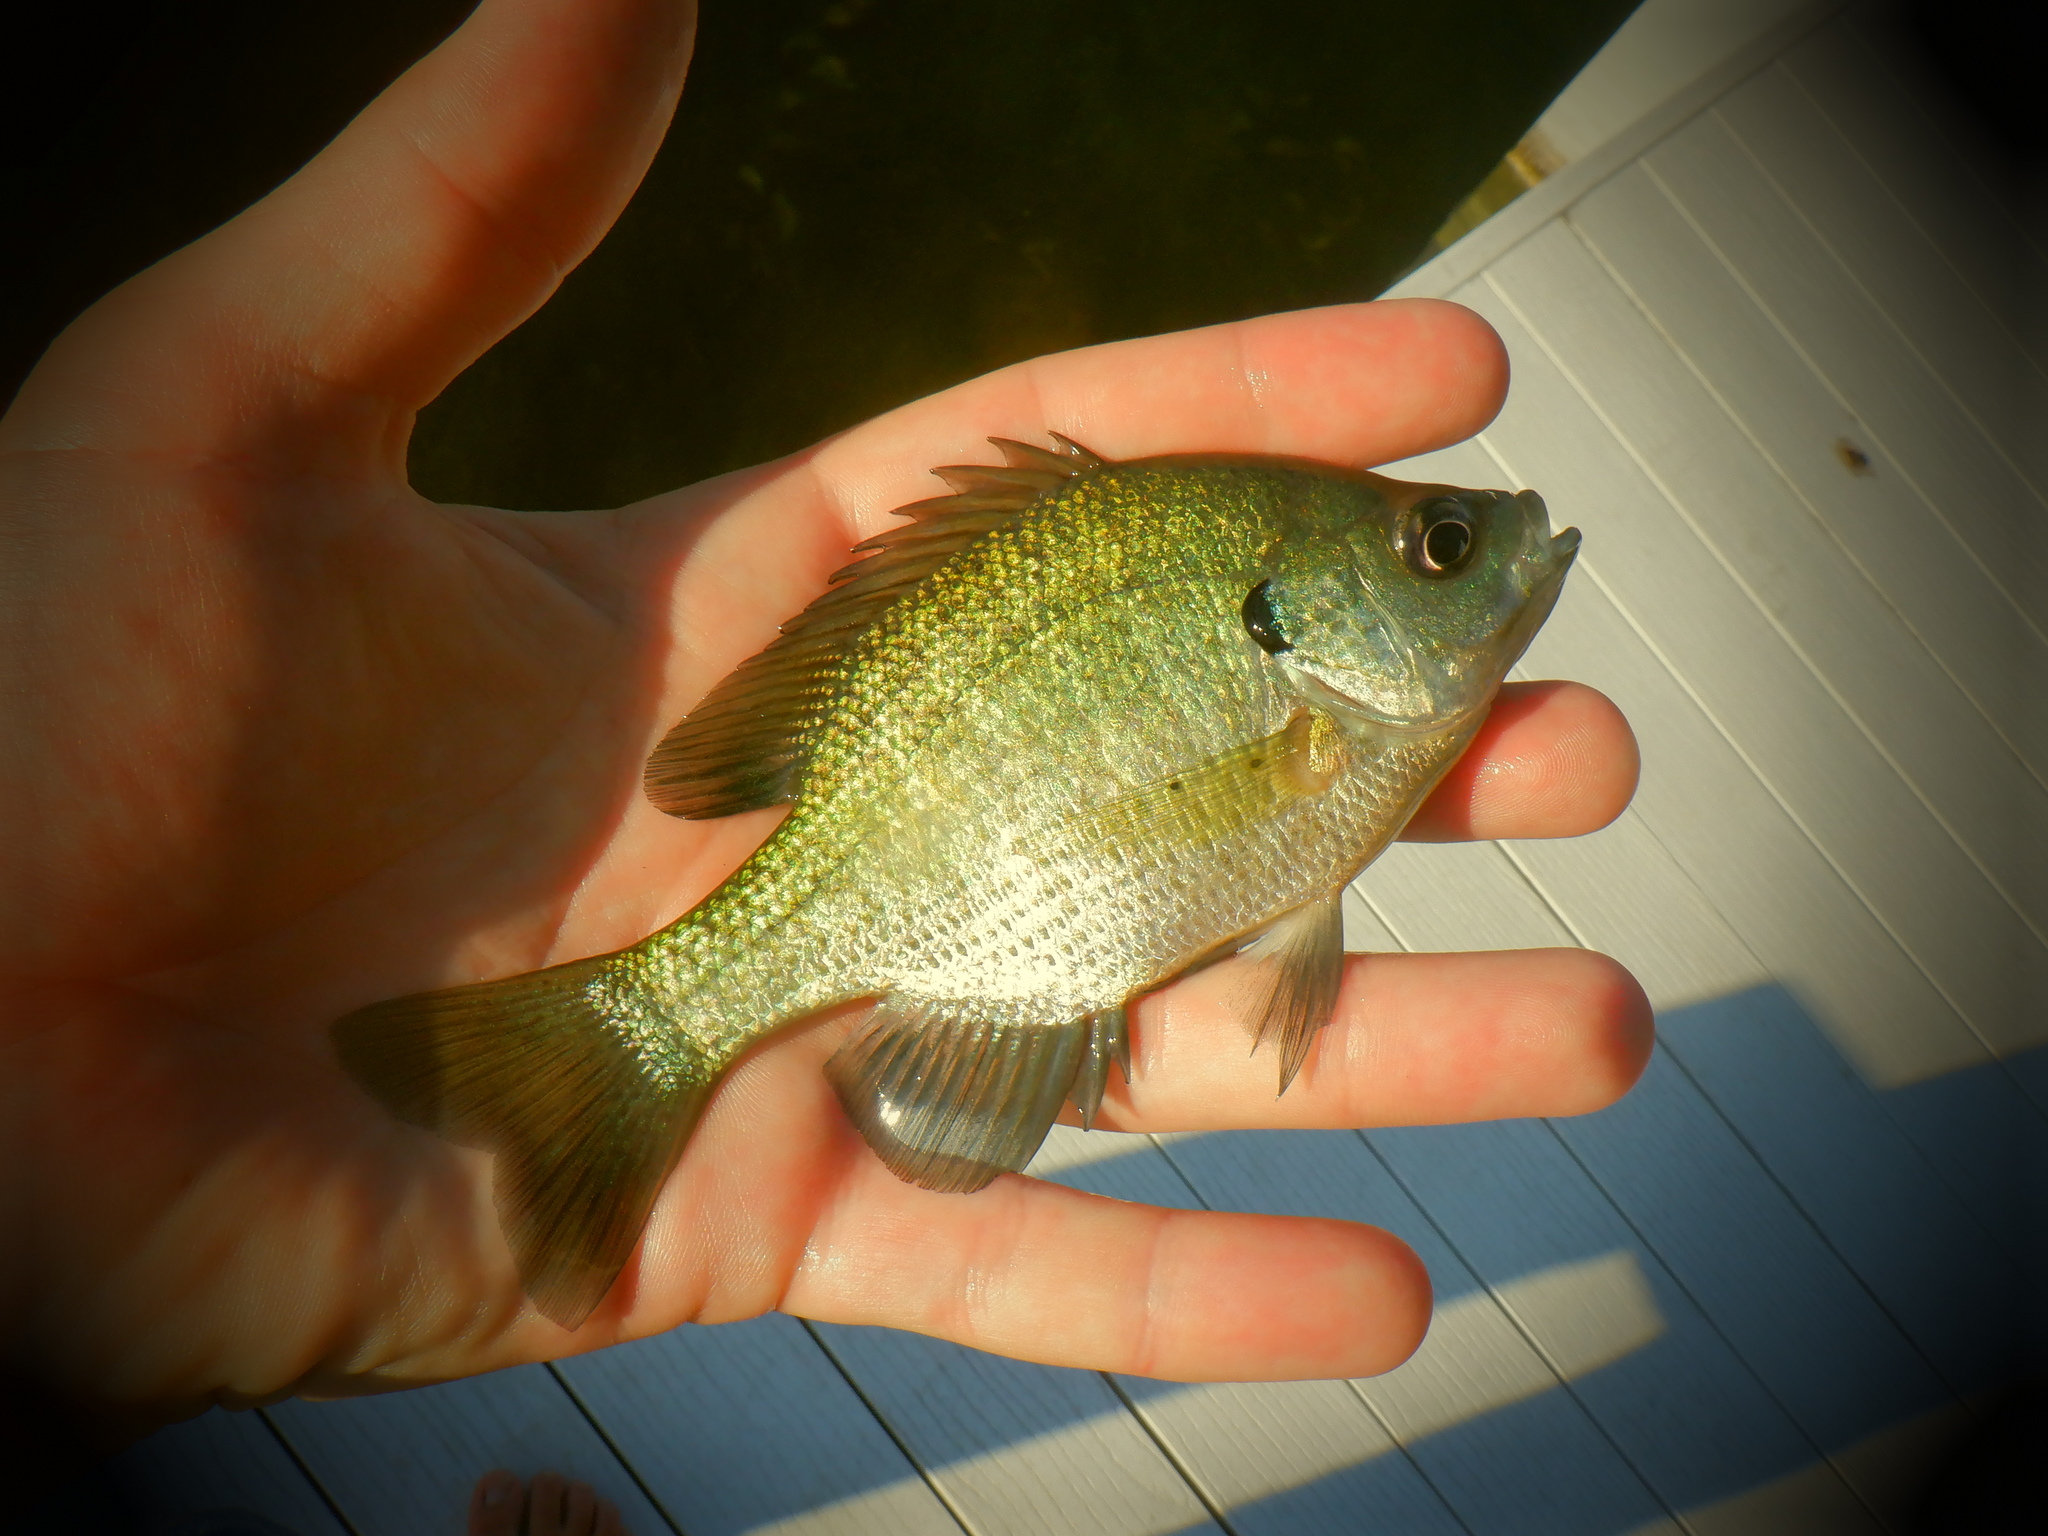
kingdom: Animalia
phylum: Chordata
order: Perciformes
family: Centrarchidae
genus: Lepomis
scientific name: Lepomis macrochirus
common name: Bluegill
